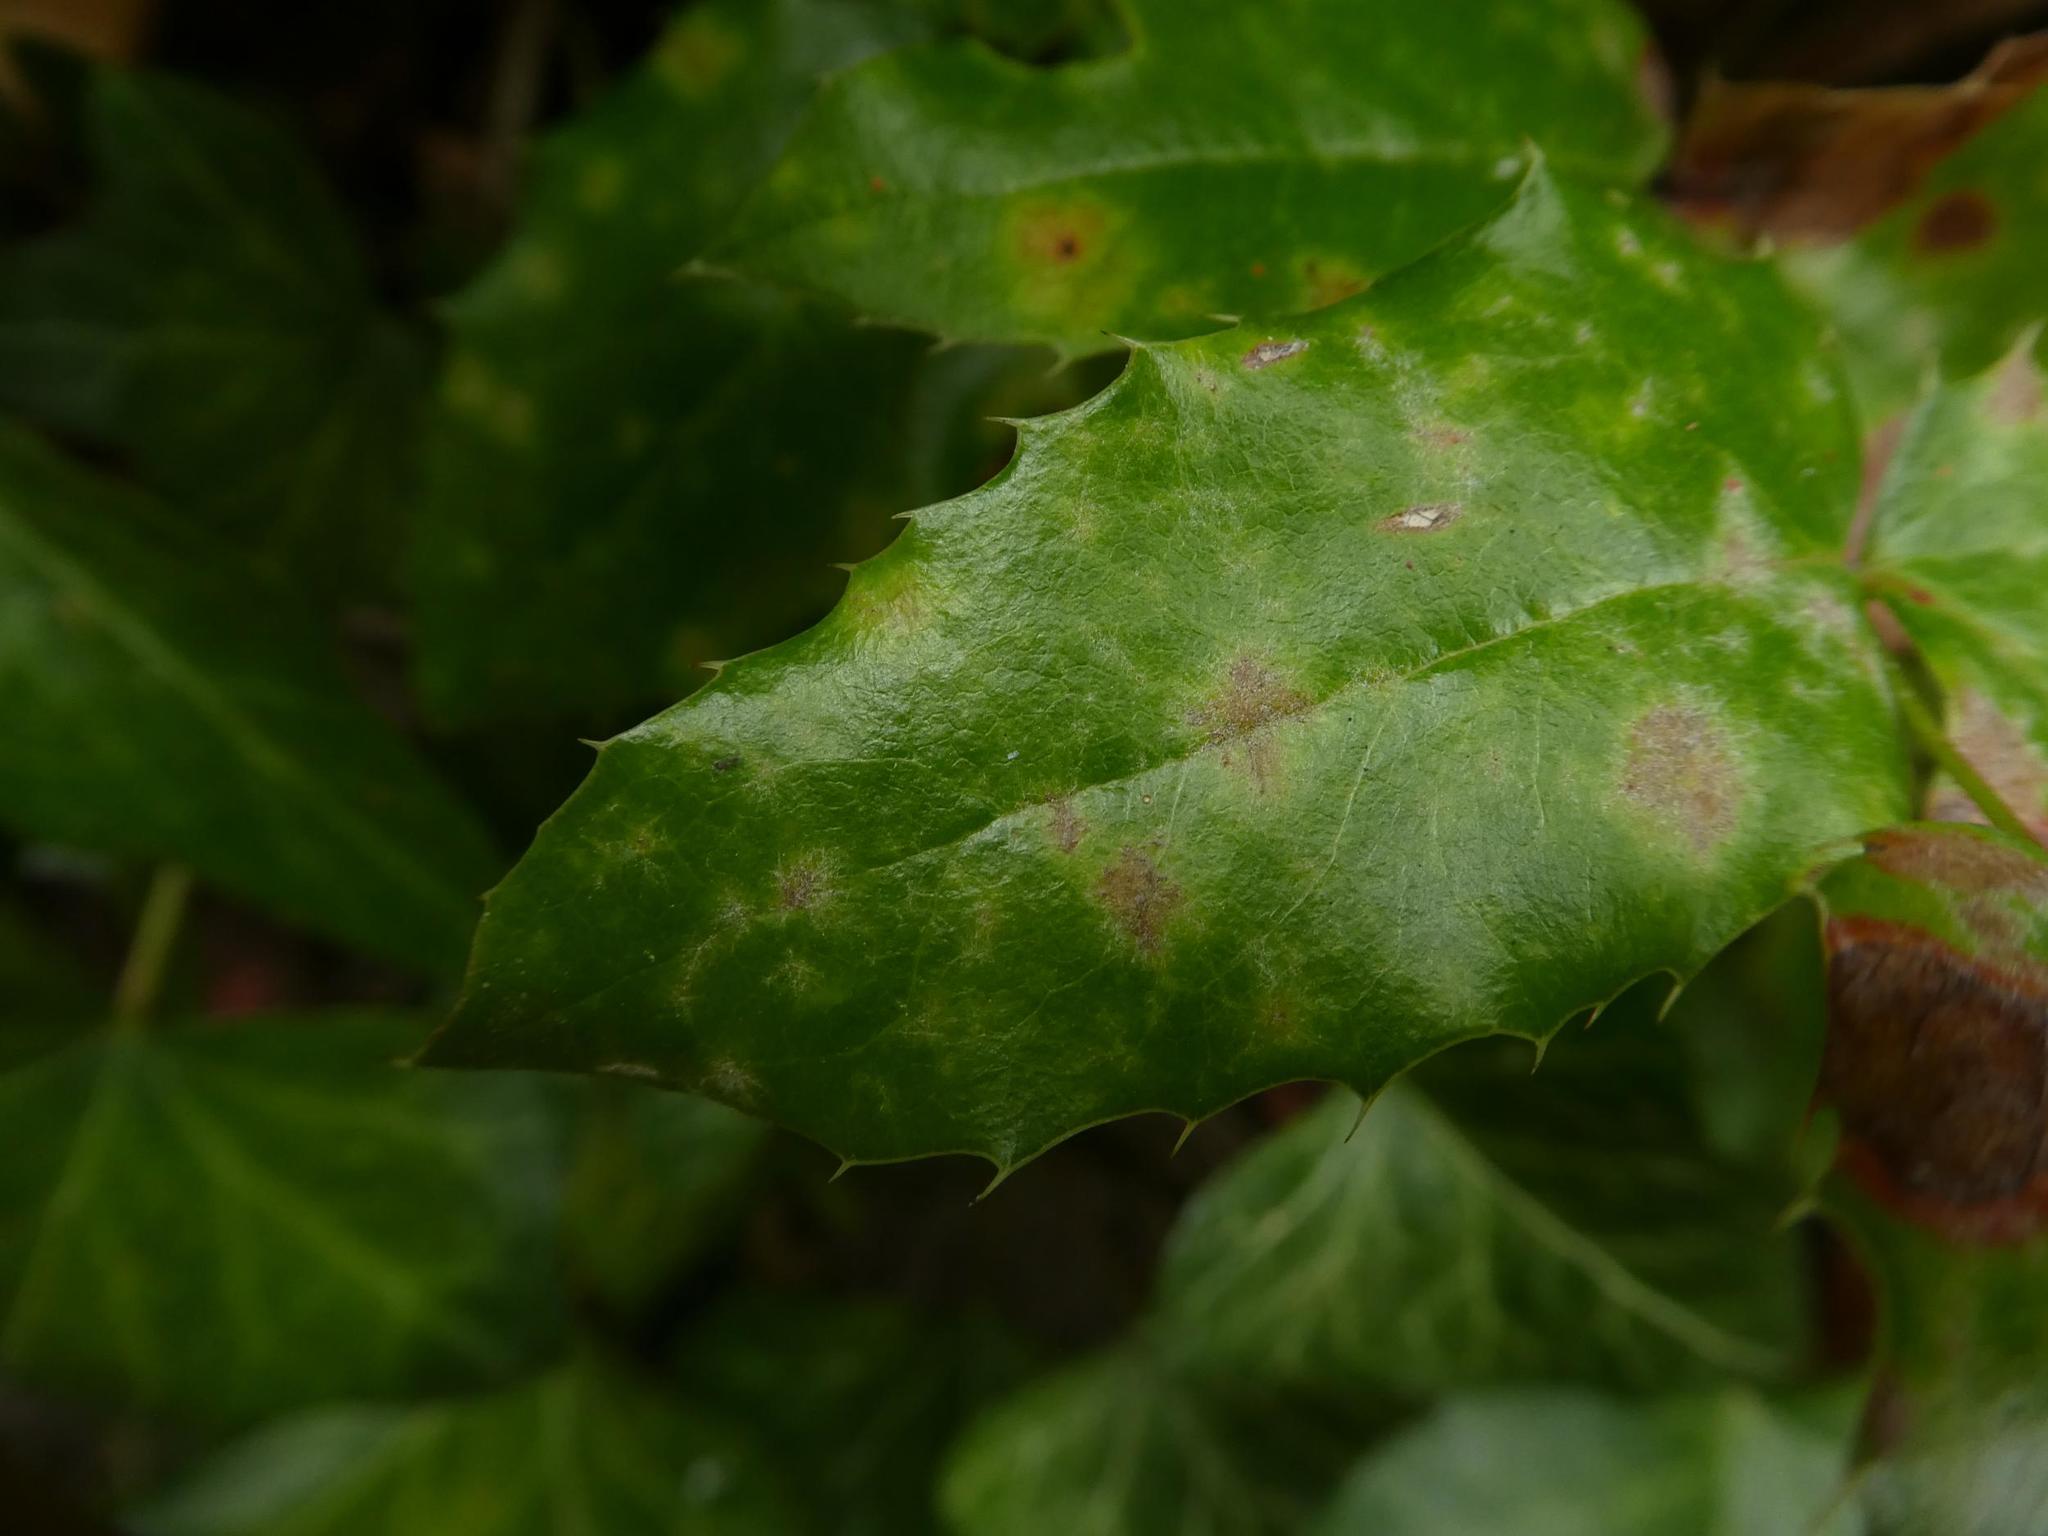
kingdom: Fungi
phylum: Ascomycota
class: Leotiomycetes
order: Helotiales
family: Erysiphaceae
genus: Erysiphe
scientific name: Erysiphe berberidis
